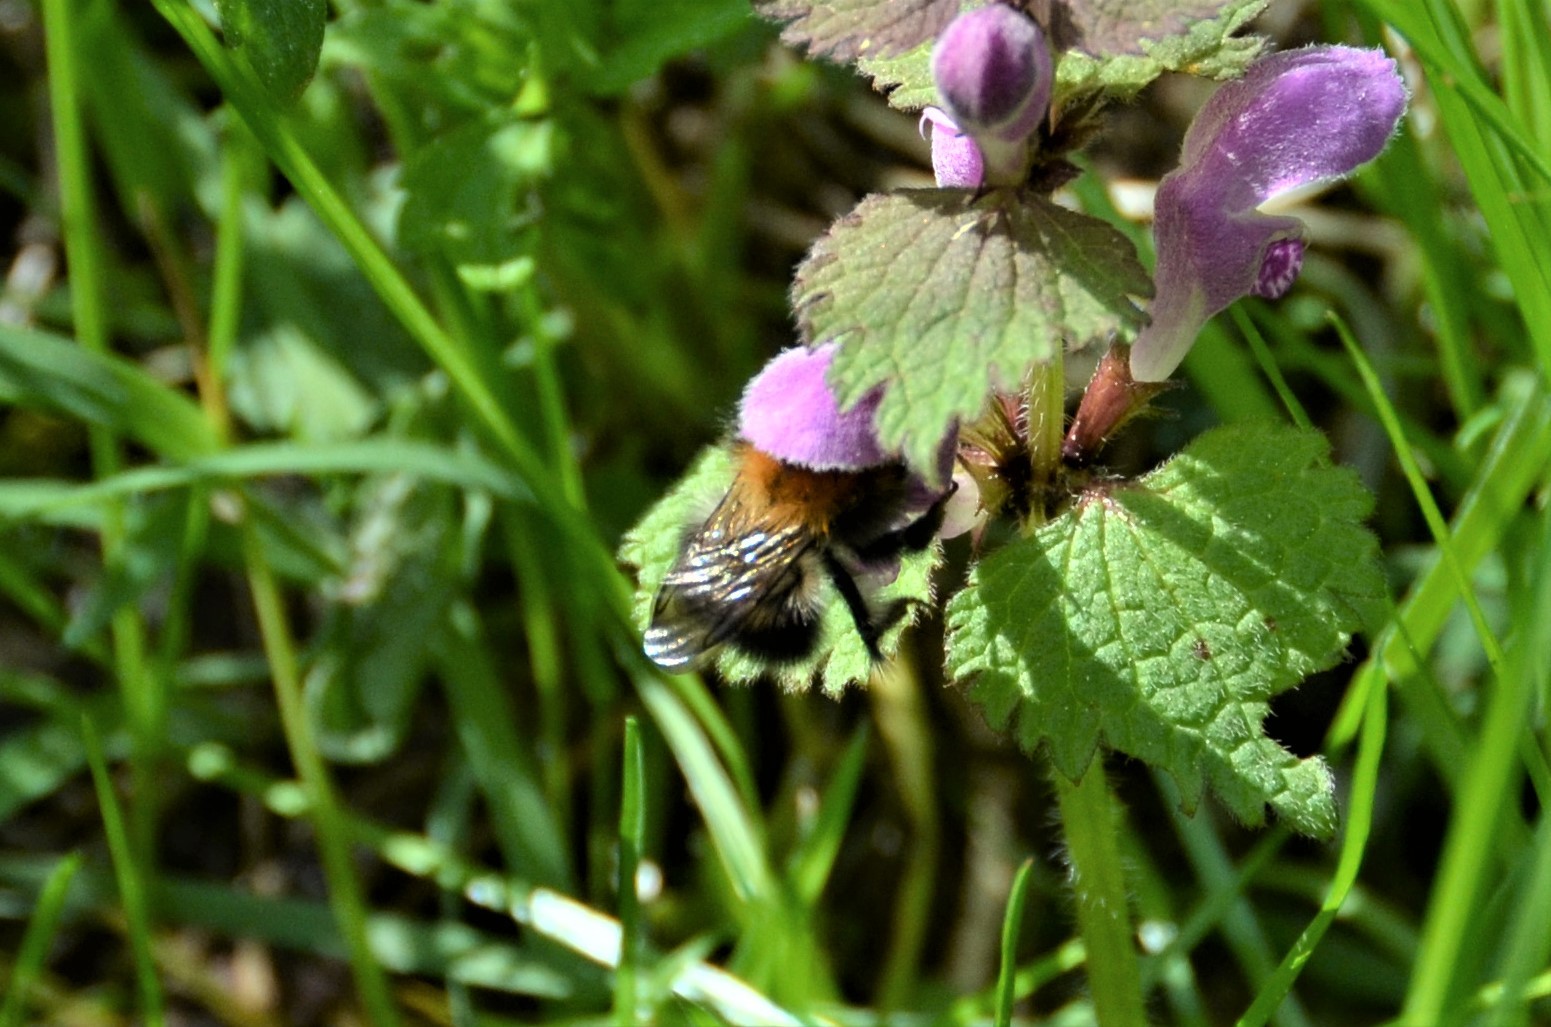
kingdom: Animalia
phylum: Arthropoda
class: Insecta
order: Hymenoptera
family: Apidae
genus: Bombus
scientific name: Bombus pascuorum
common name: Common carder bee
